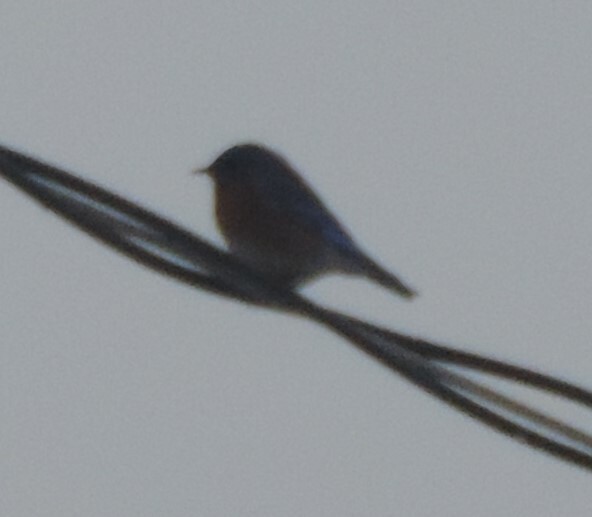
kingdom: Animalia
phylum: Chordata
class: Aves
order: Passeriformes
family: Turdidae
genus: Sialia
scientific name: Sialia mexicana
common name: Western bluebird
